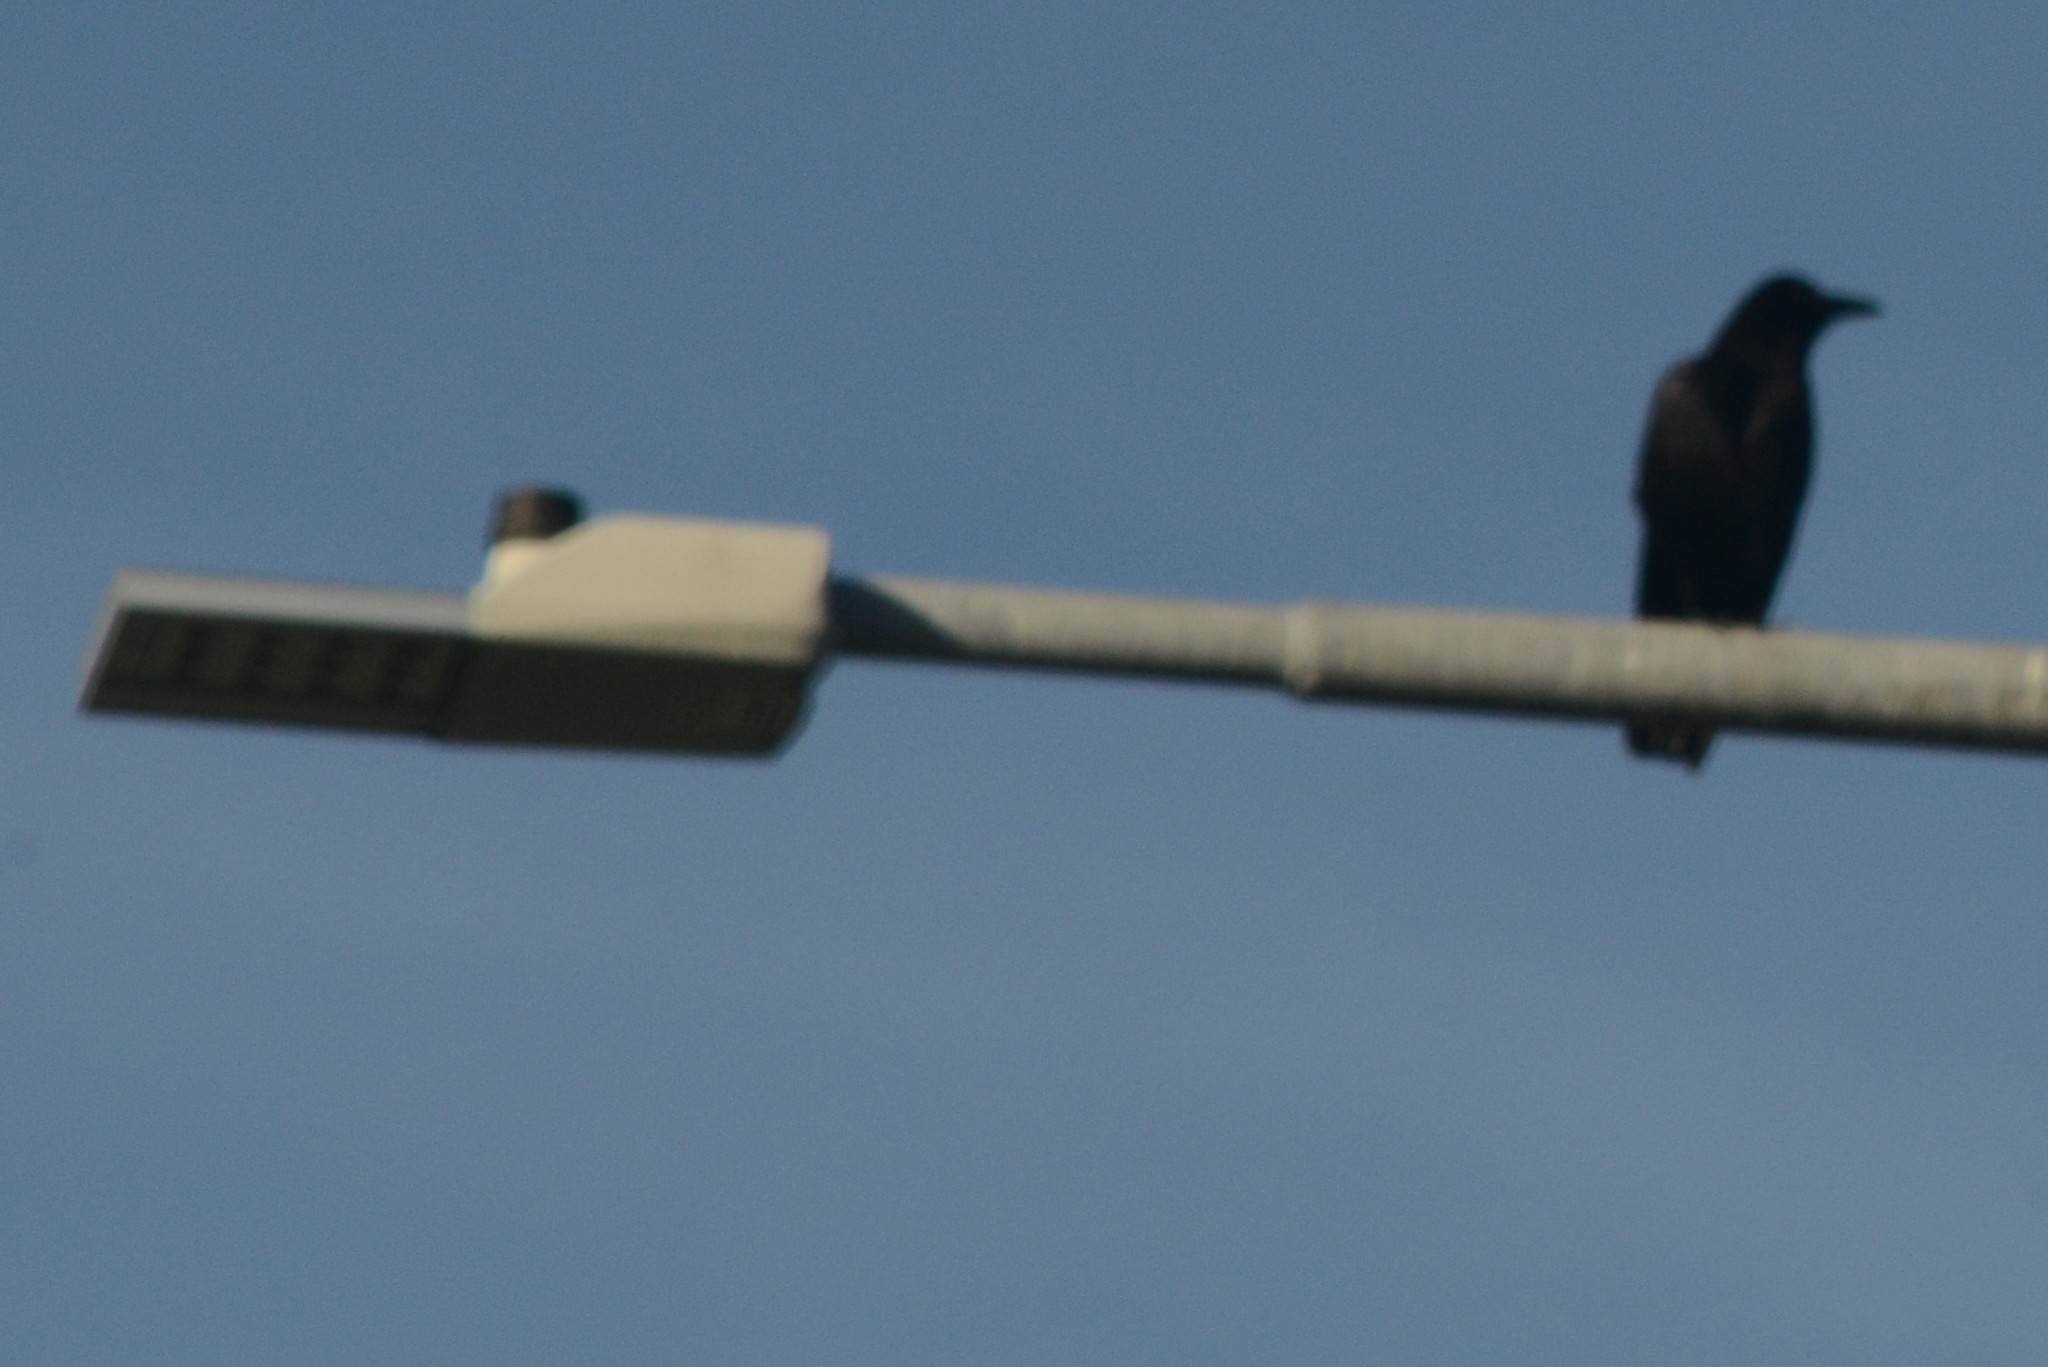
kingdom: Animalia
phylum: Chordata
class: Aves
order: Passeriformes
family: Corvidae
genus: Corvus
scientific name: Corvus brachyrhynchos
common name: American crow
